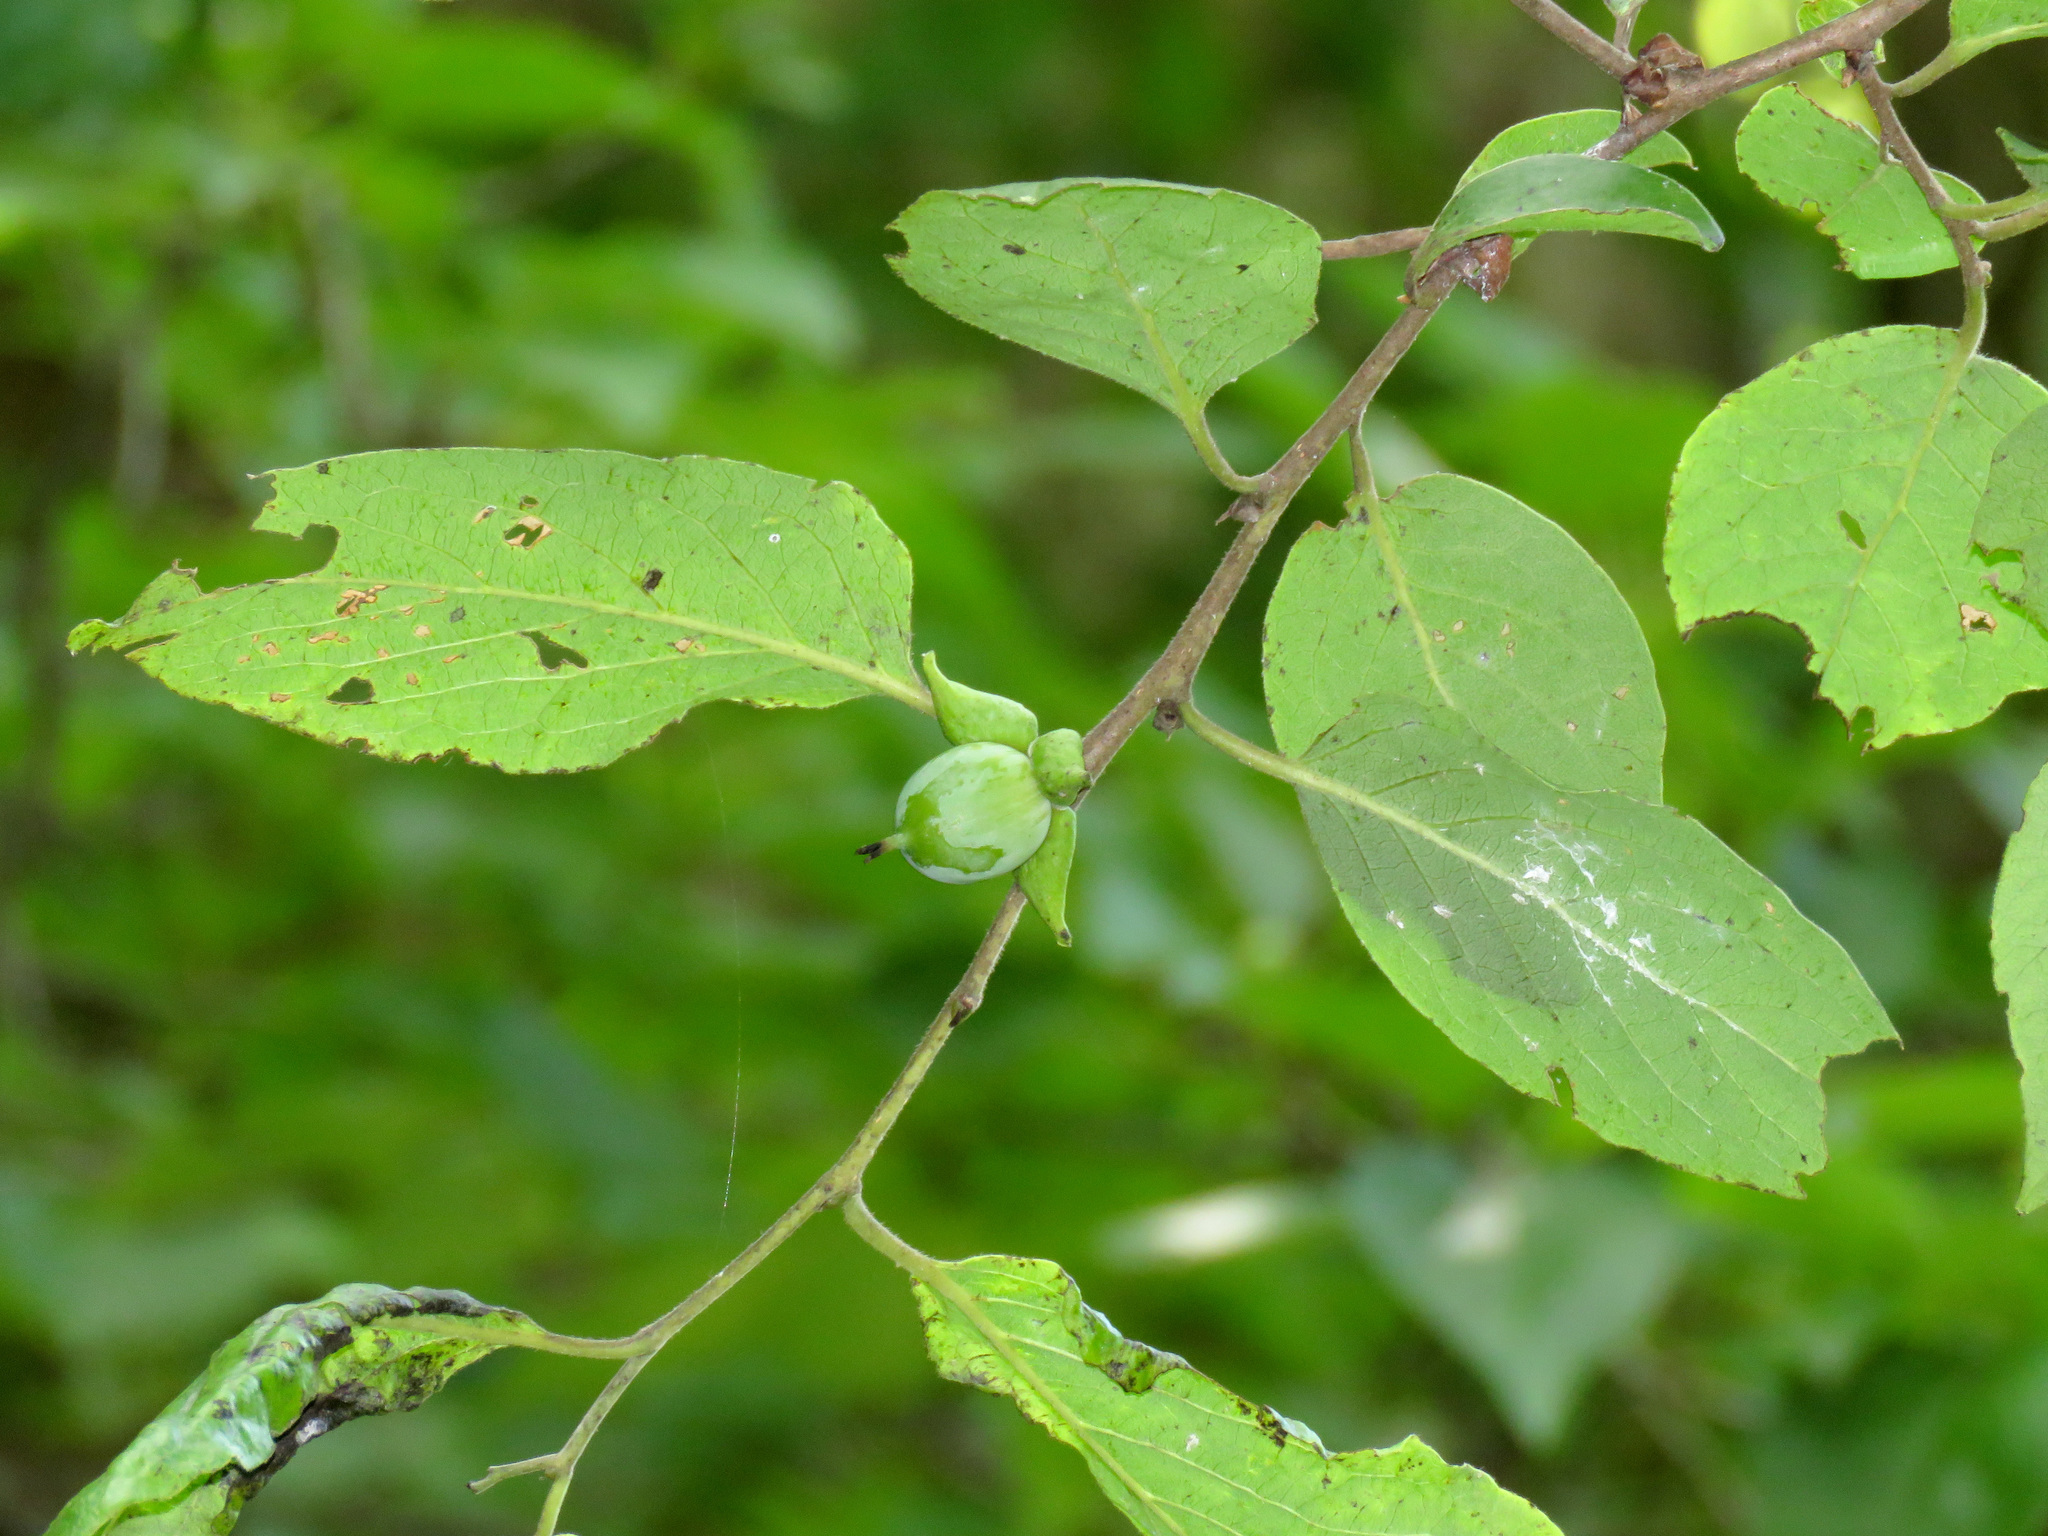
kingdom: Plantae
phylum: Tracheophyta
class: Magnoliopsida
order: Ericales
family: Ebenaceae
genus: Diospyros
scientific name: Diospyros virginiana
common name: Persimmon
